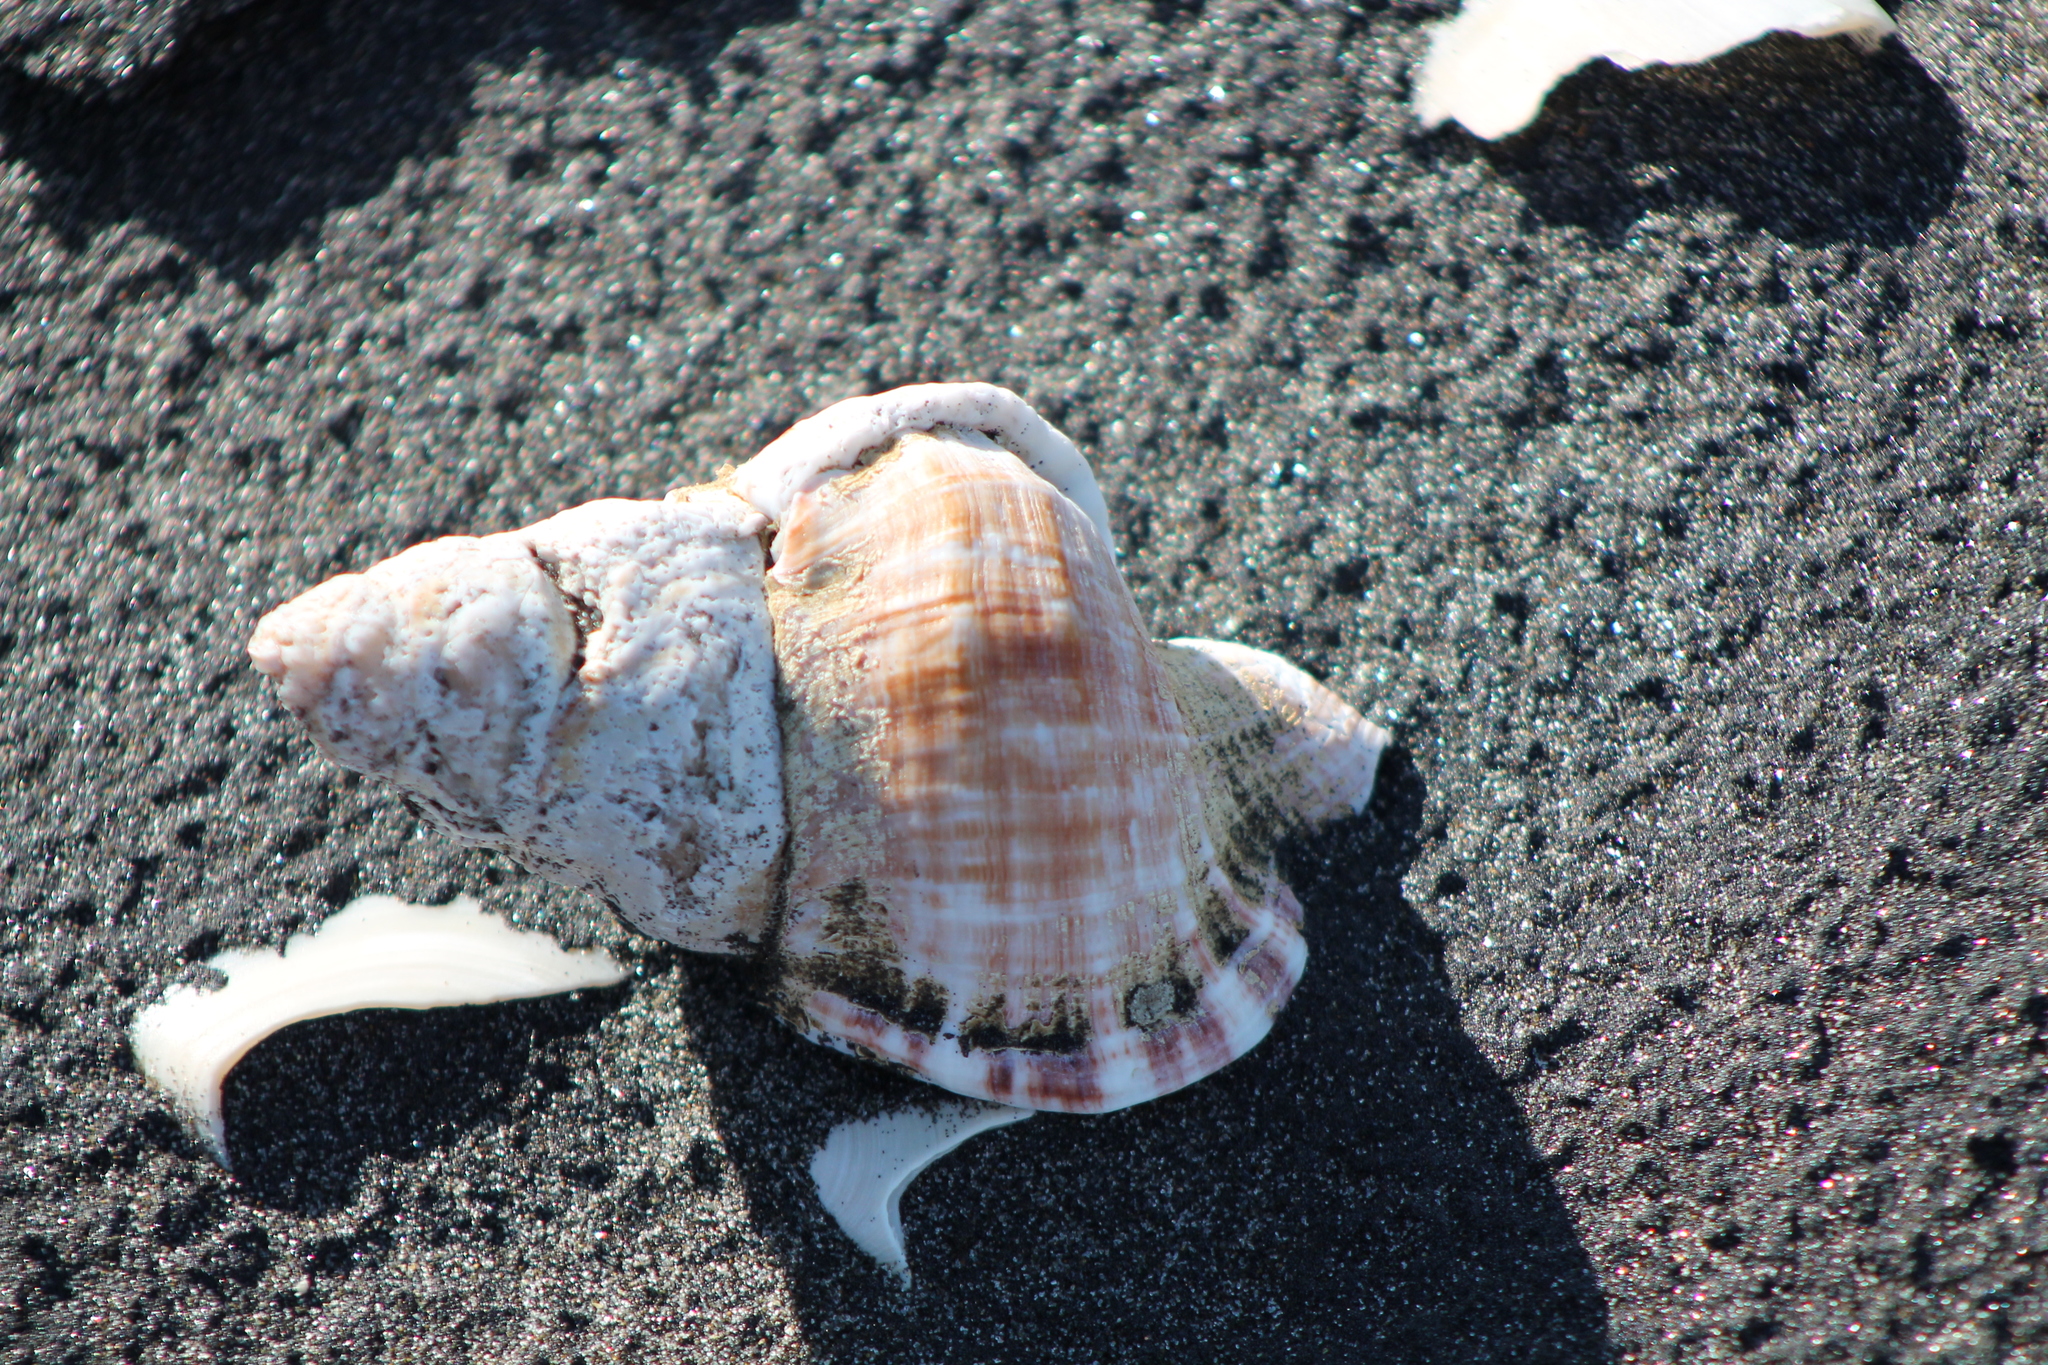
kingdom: Animalia
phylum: Mollusca
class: Gastropoda
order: Littorinimorpha
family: Ranellidae
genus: Ranella
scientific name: Ranella australasia
